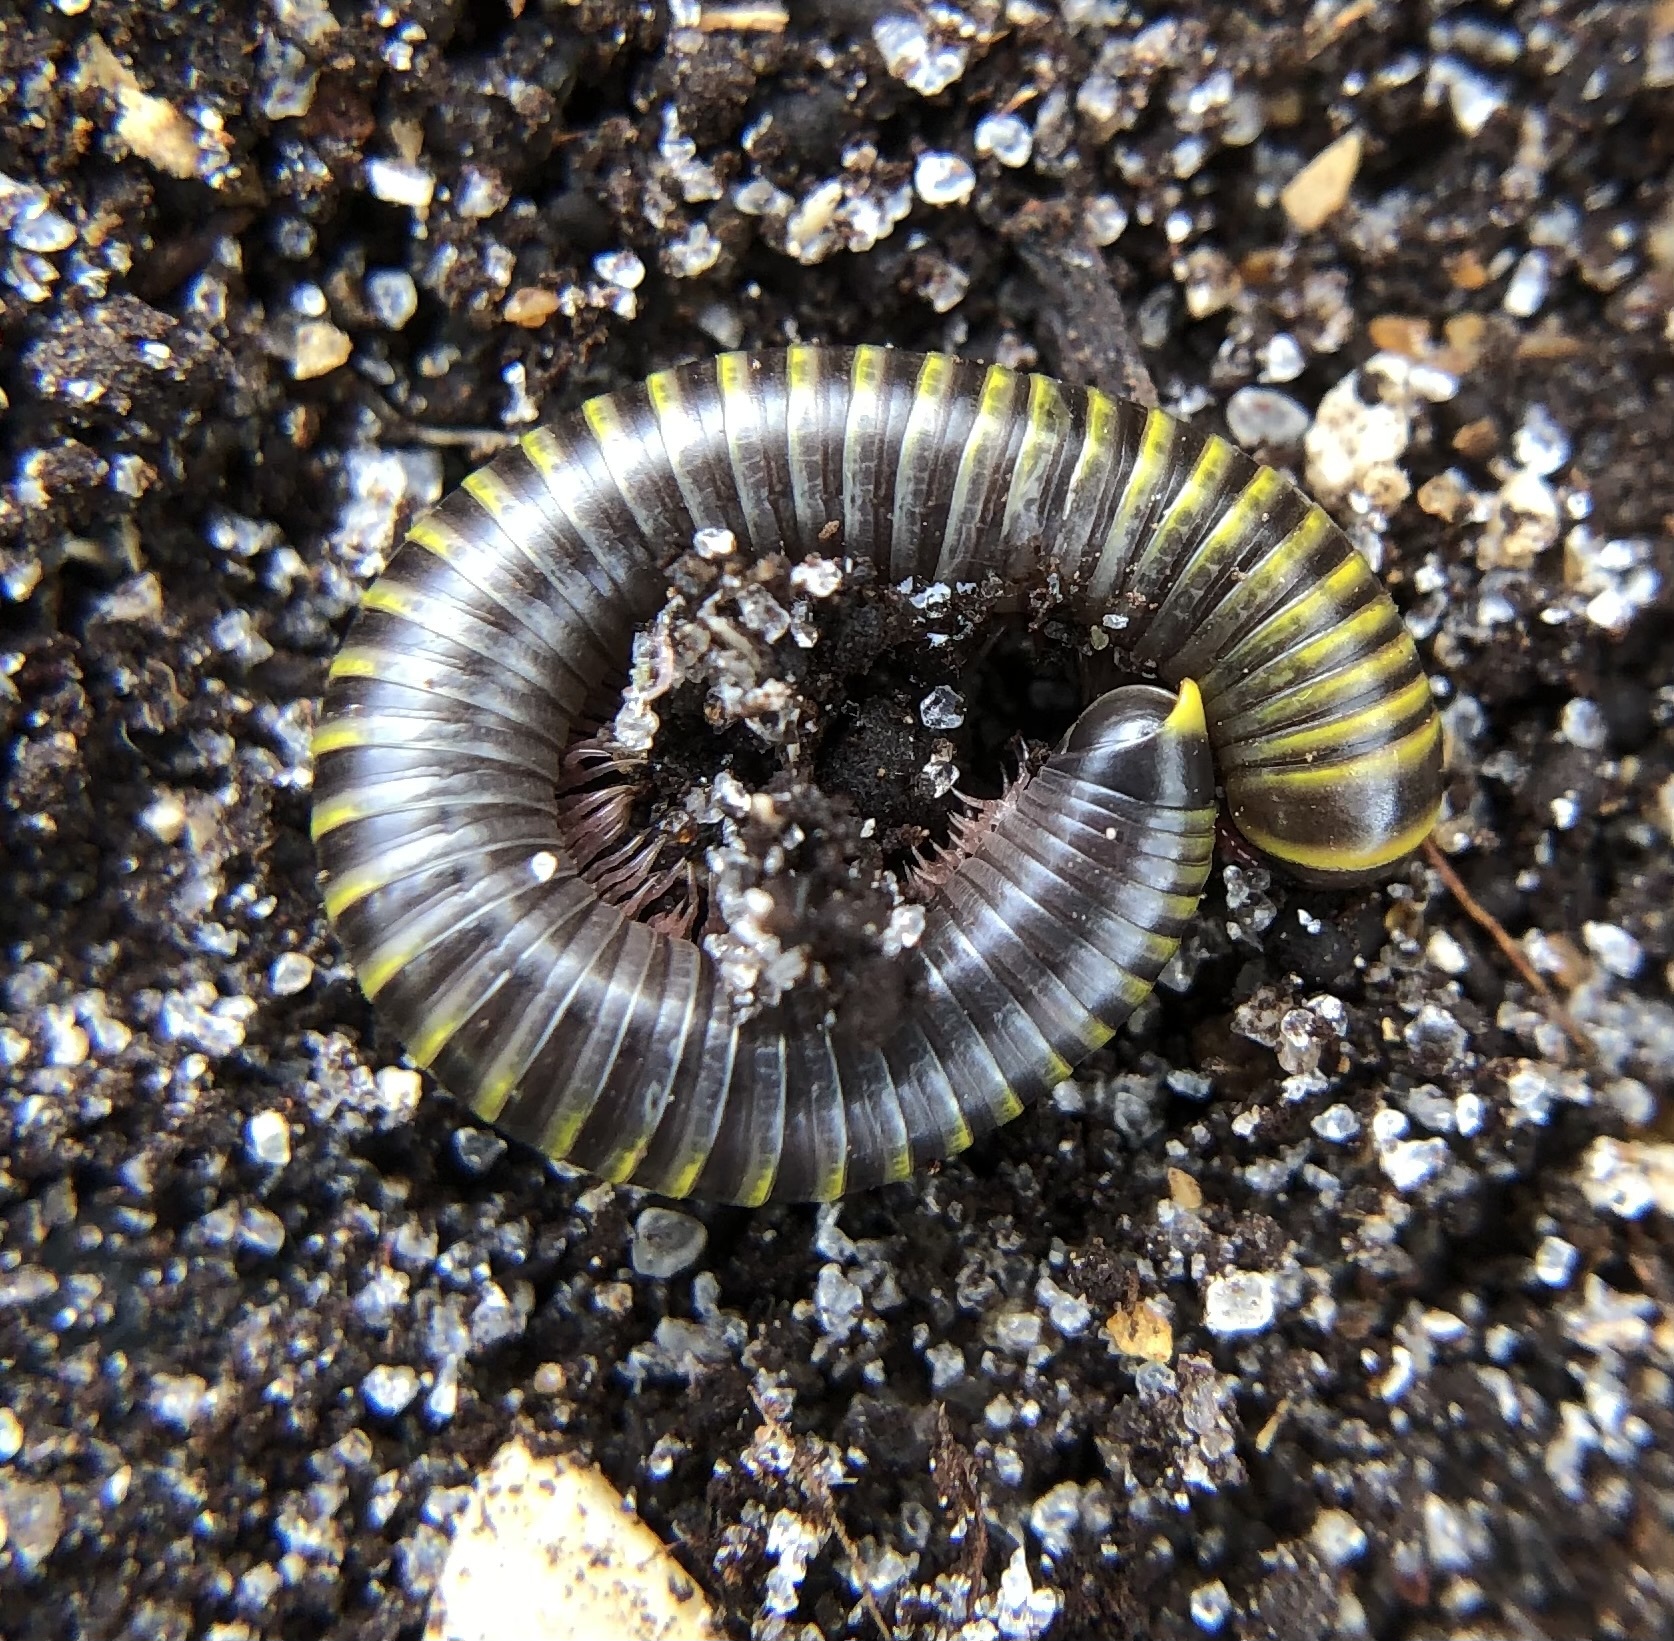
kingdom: Animalia
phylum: Arthropoda
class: Diplopoda
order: Spirobolida
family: Rhinocricidae
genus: Anadenobolus
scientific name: Anadenobolus monilicornis
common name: Caribbean millipede
